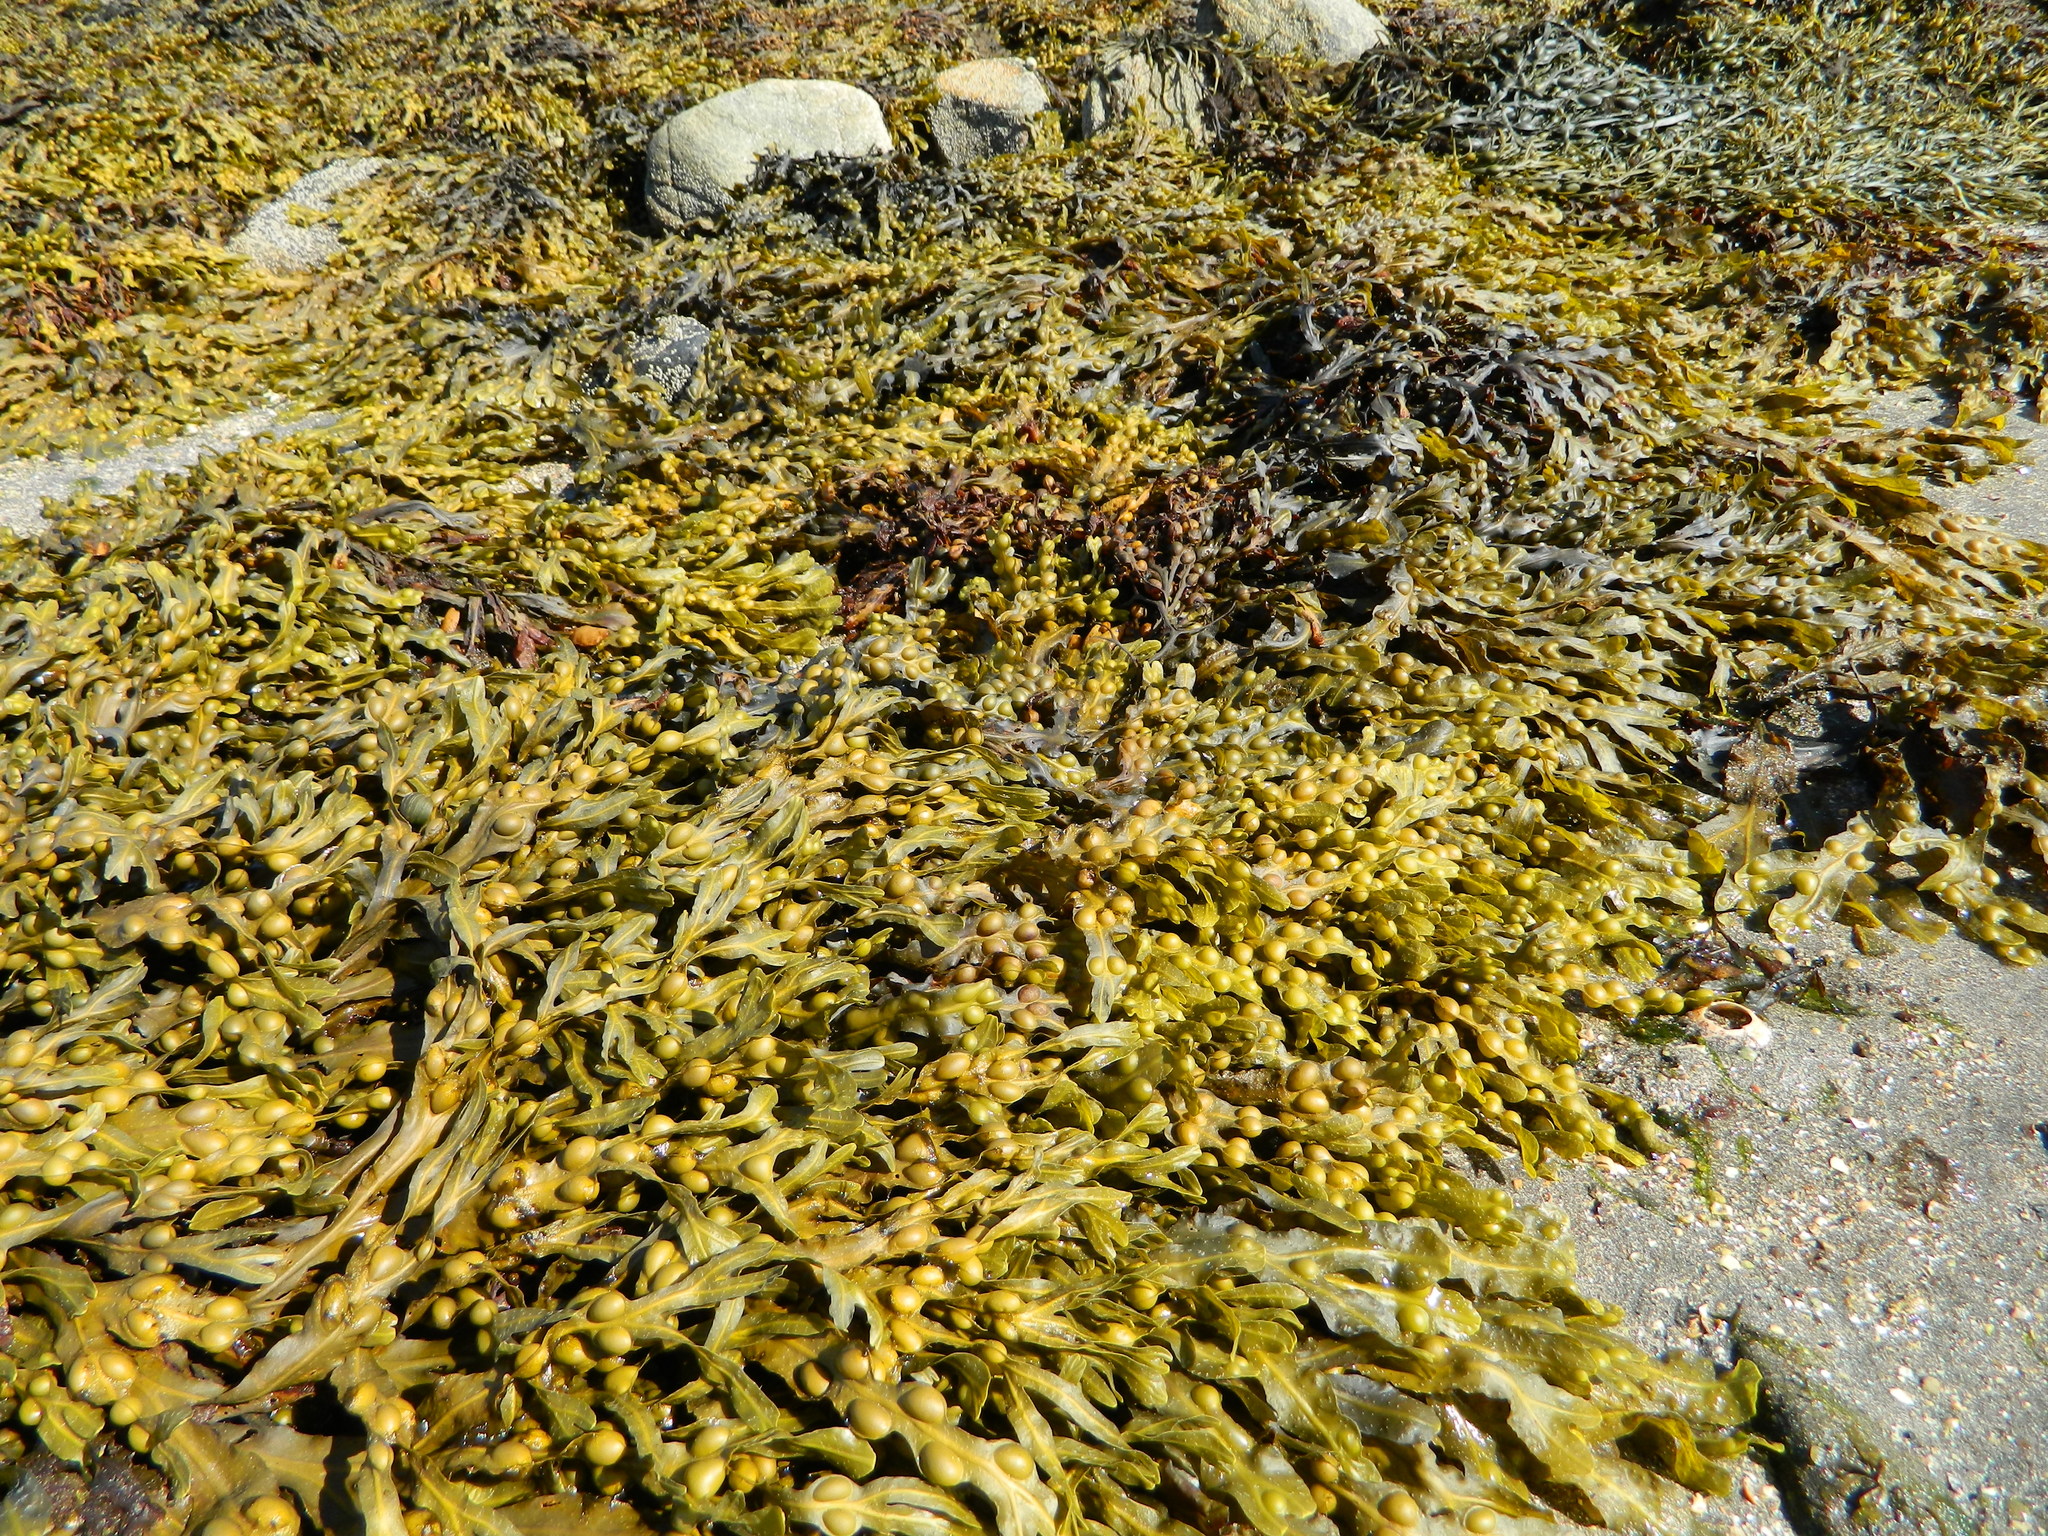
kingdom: Chromista
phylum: Ochrophyta
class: Phaeophyceae
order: Fucales
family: Fucaceae
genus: Fucus
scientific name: Fucus vesiculosus
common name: Bladder wrack
